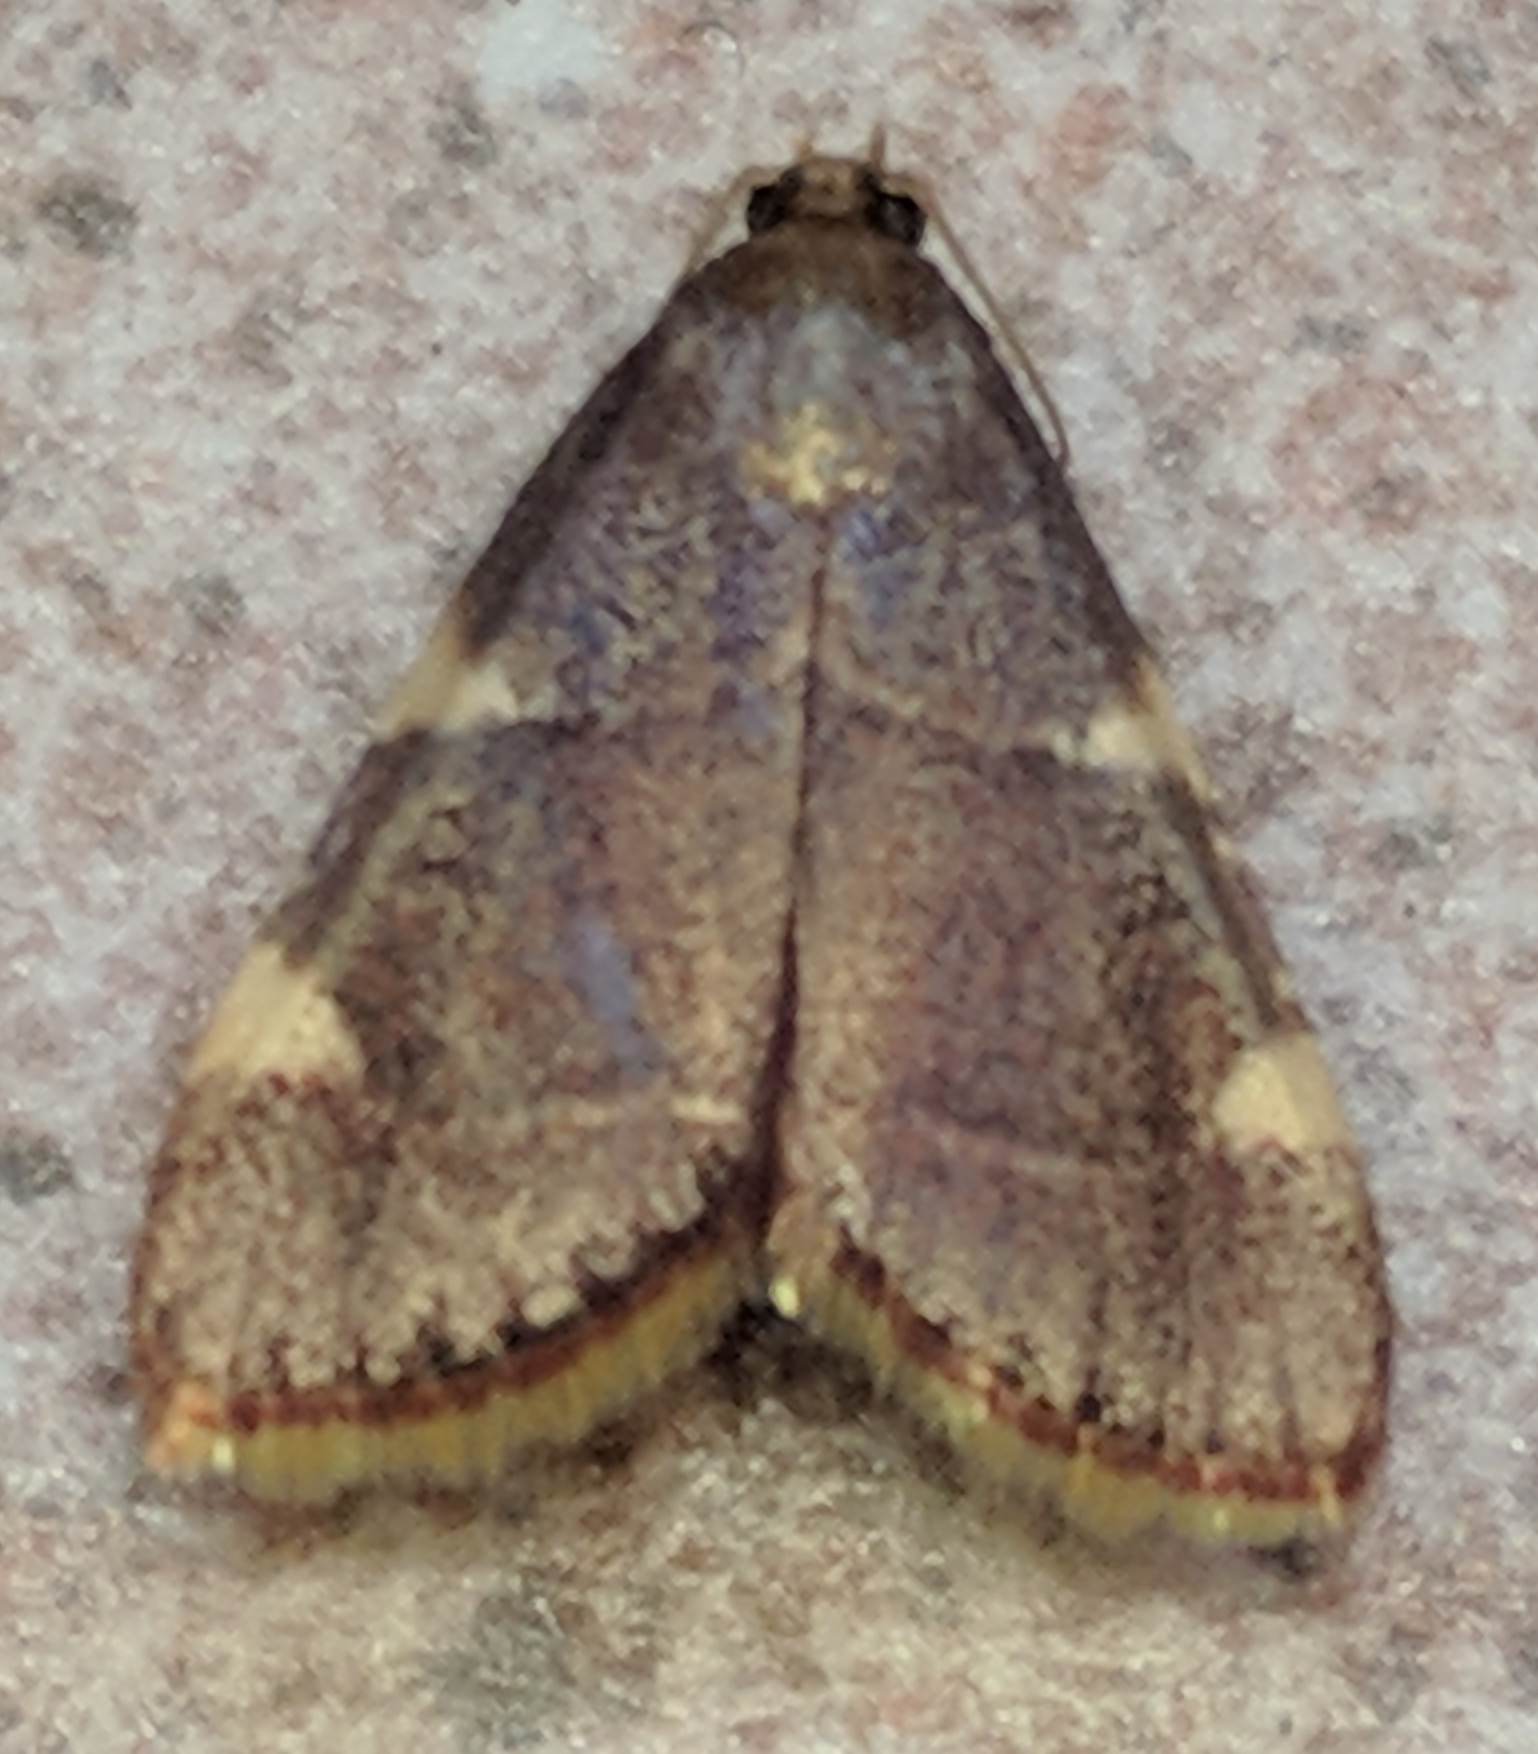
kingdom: Animalia
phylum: Arthropoda
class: Insecta
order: Lepidoptera
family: Pyralidae
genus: Hypsopygia
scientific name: Hypsopygia olinalis
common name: Yellow-fringed dolichomia moth
